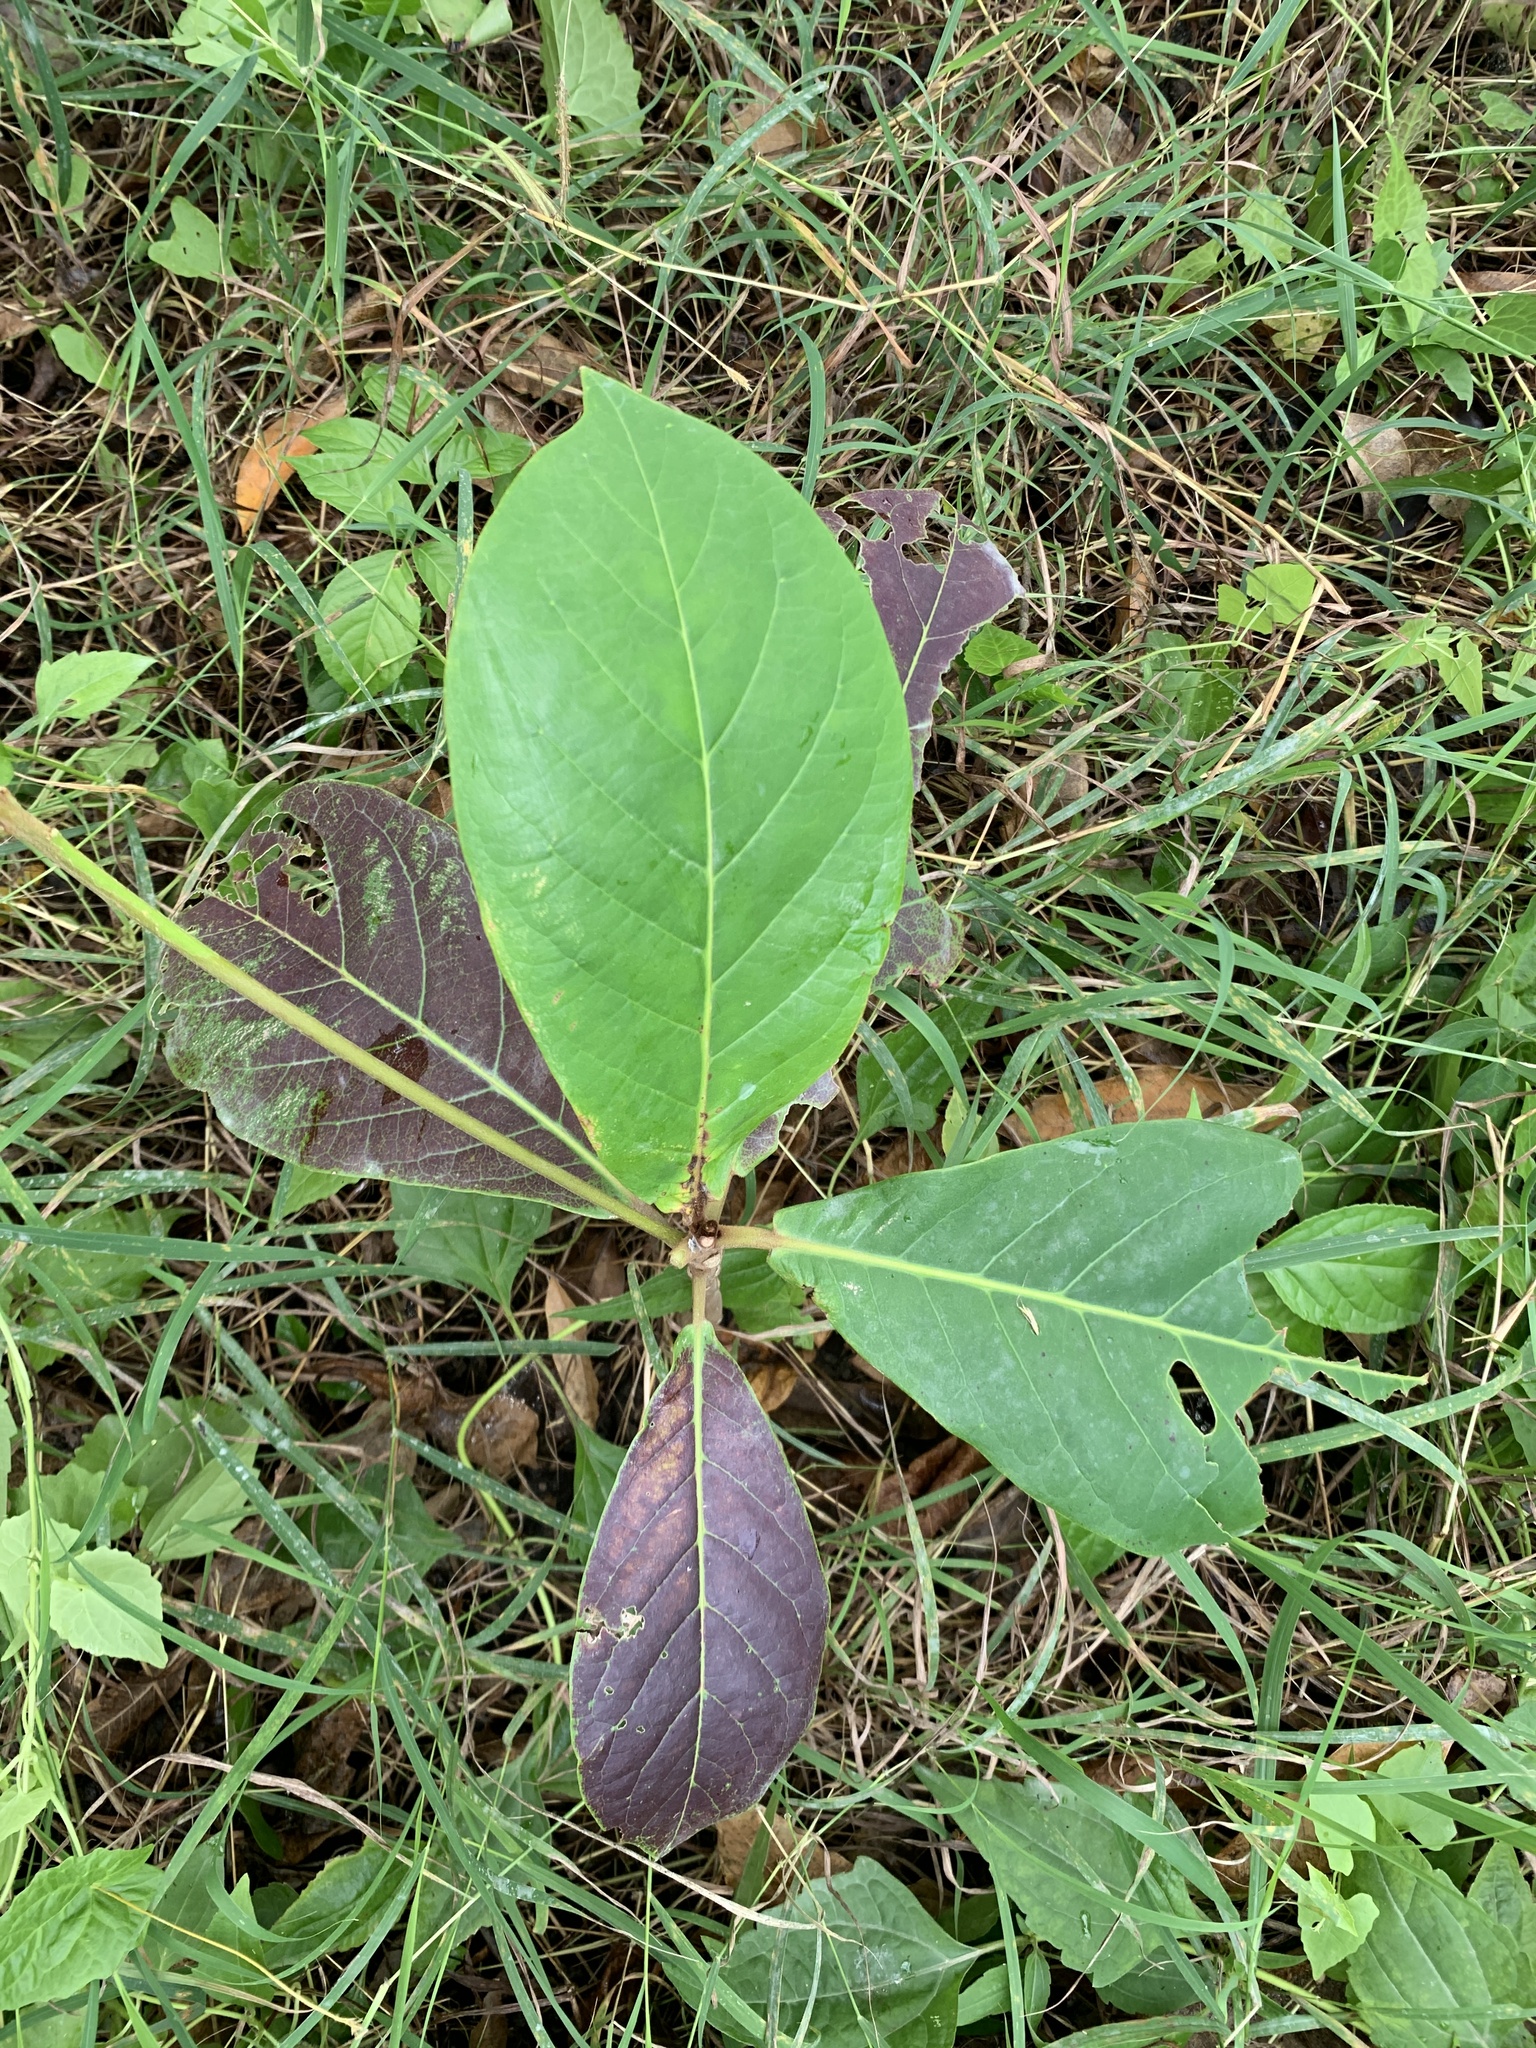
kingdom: Plantae
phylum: Tracheophyta
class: Magnoliopsida
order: Myrtales
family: Combretaceae
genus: Terminalia
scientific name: Terminalia catappa
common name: Tropical almond
